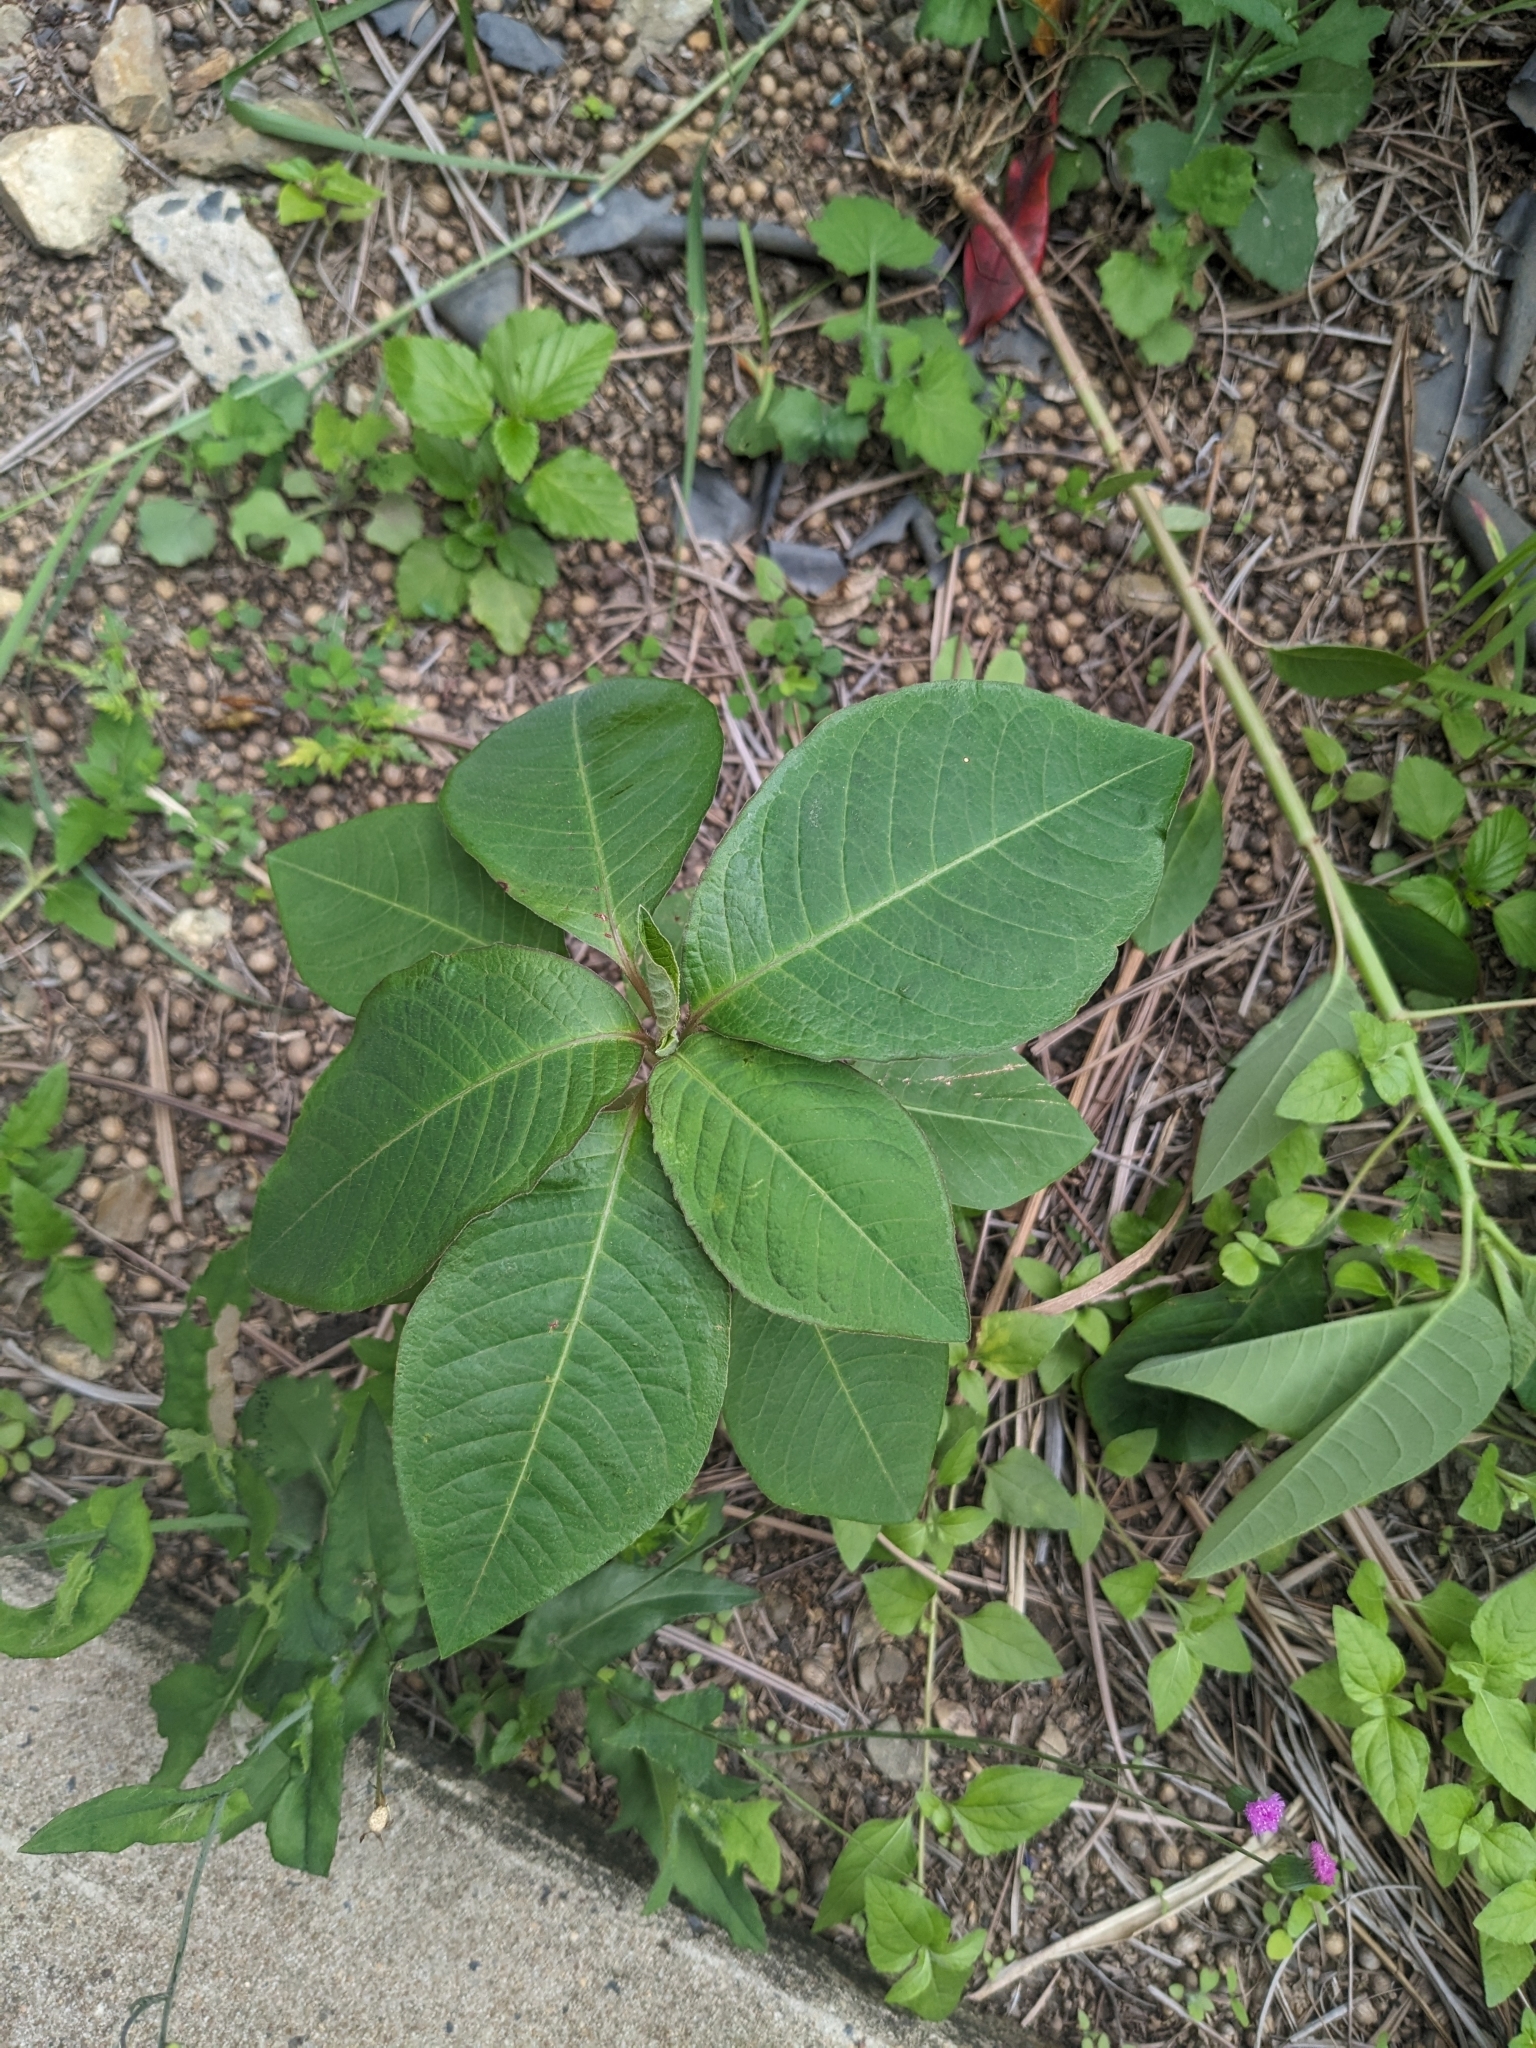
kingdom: Plantae
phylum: Tracheophyta
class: Magnoliopsida
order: Malpighiales
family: Euphorbiaceae
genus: Euphorbia
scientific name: Euphorbia heterophylla
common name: Mexican fireplant
